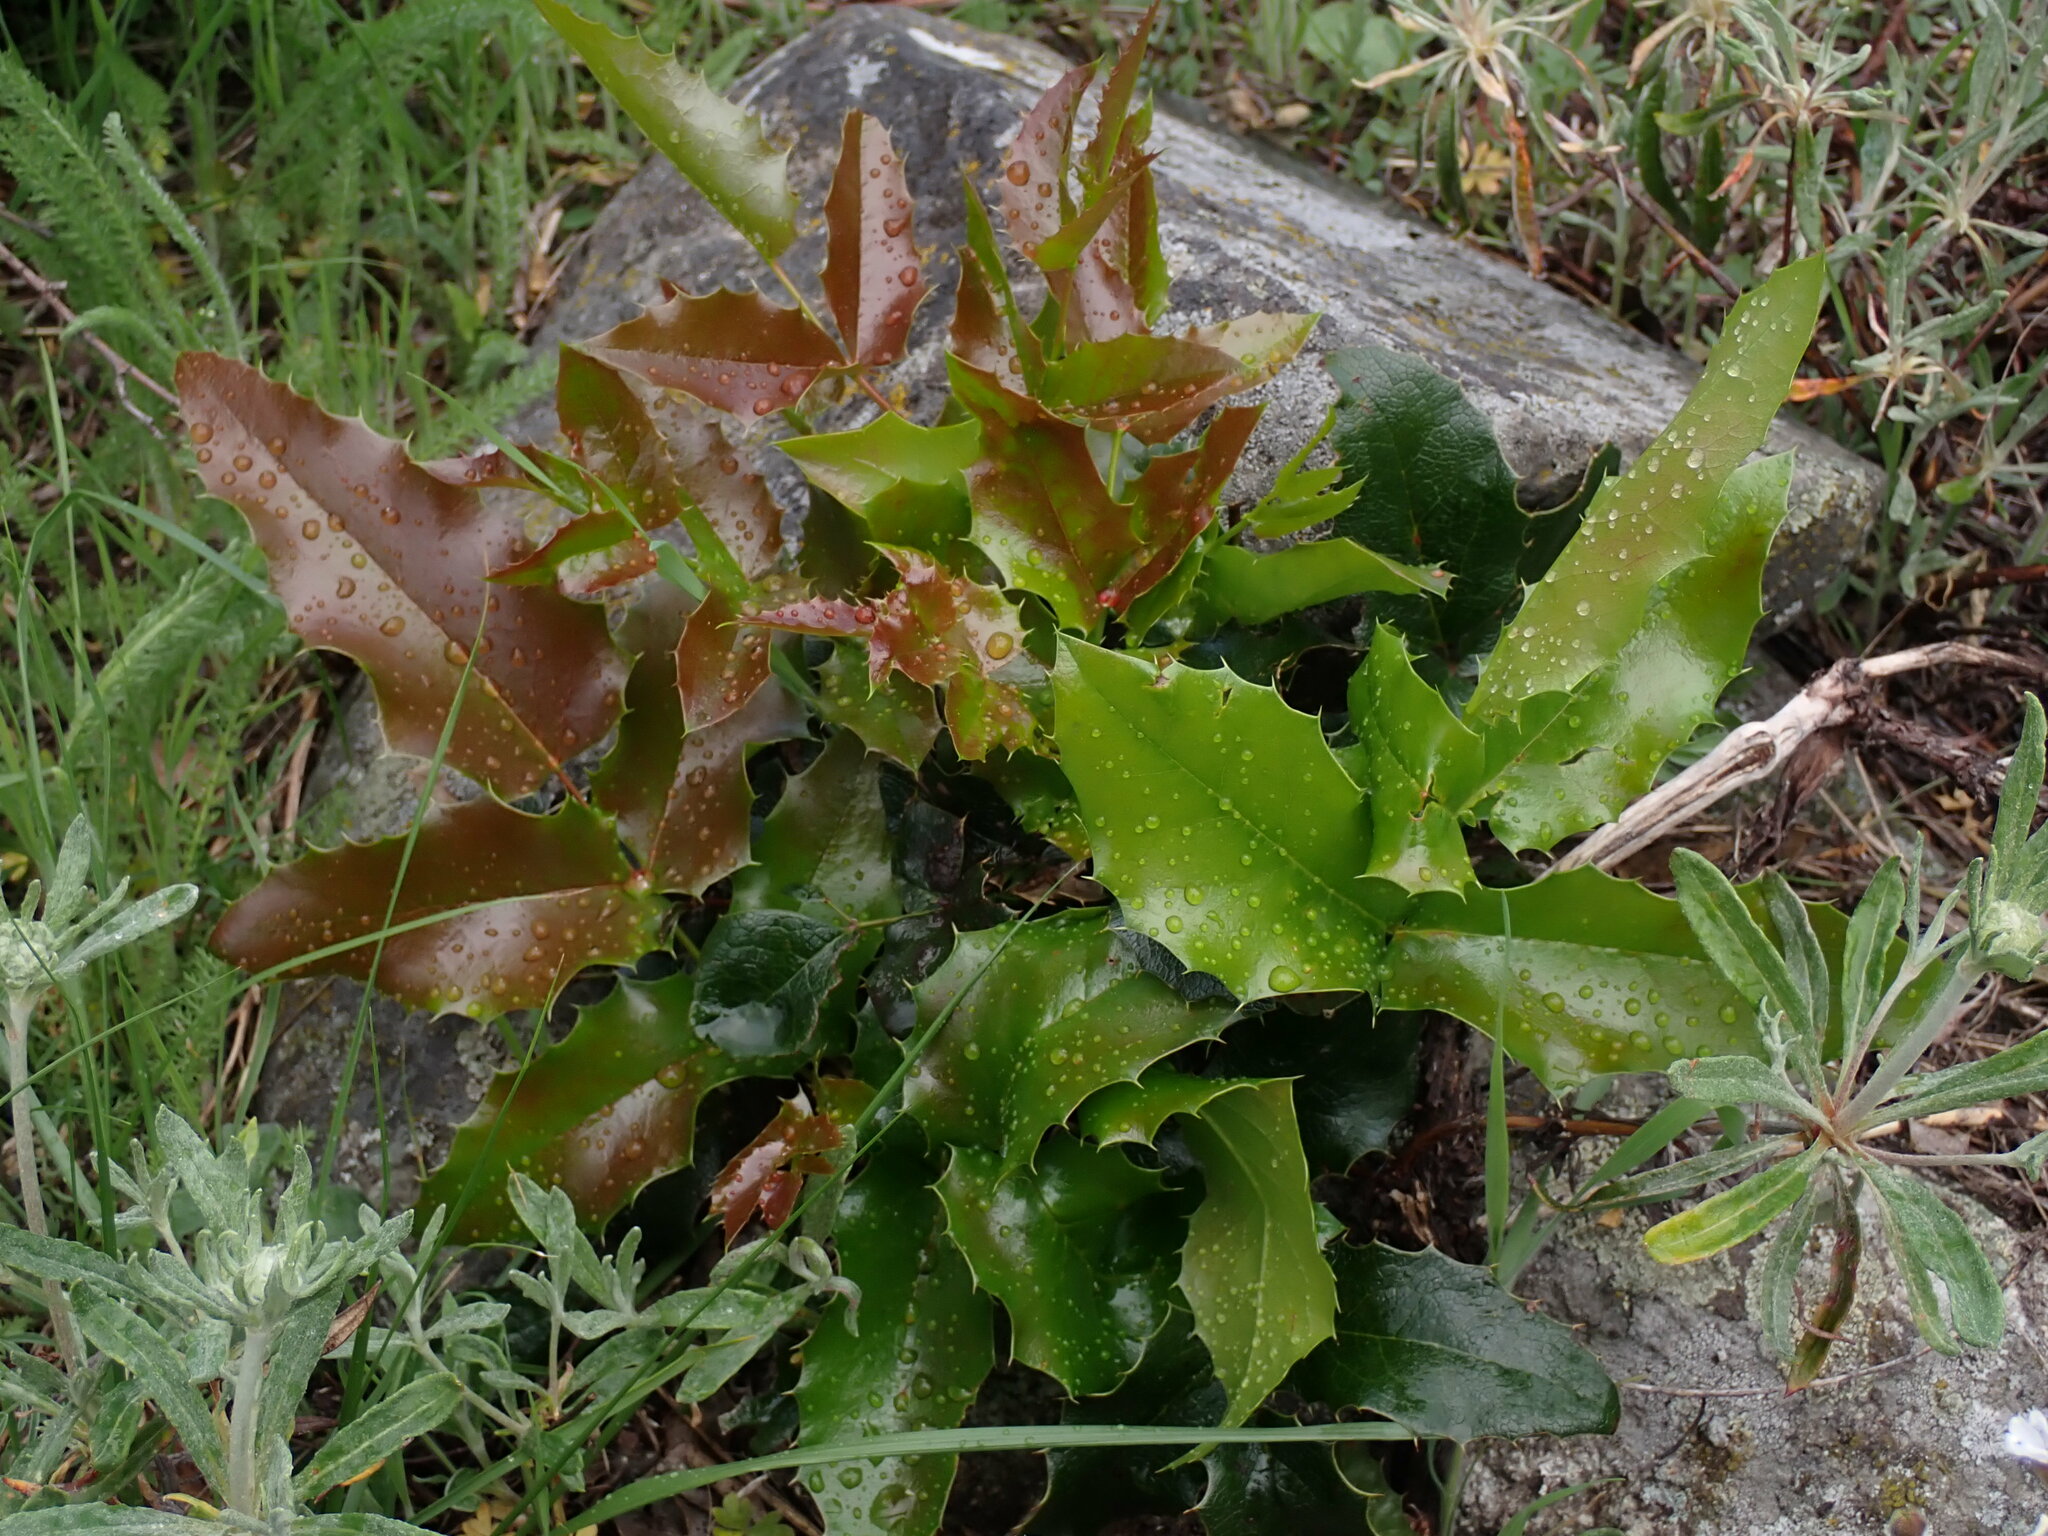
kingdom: Plantae
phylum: Tracheophyta
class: Magnoliopsida
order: Ranunculales
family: Berberidaceae
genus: Mahonia
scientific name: Mahonia aquifolium
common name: Oregon-grape
